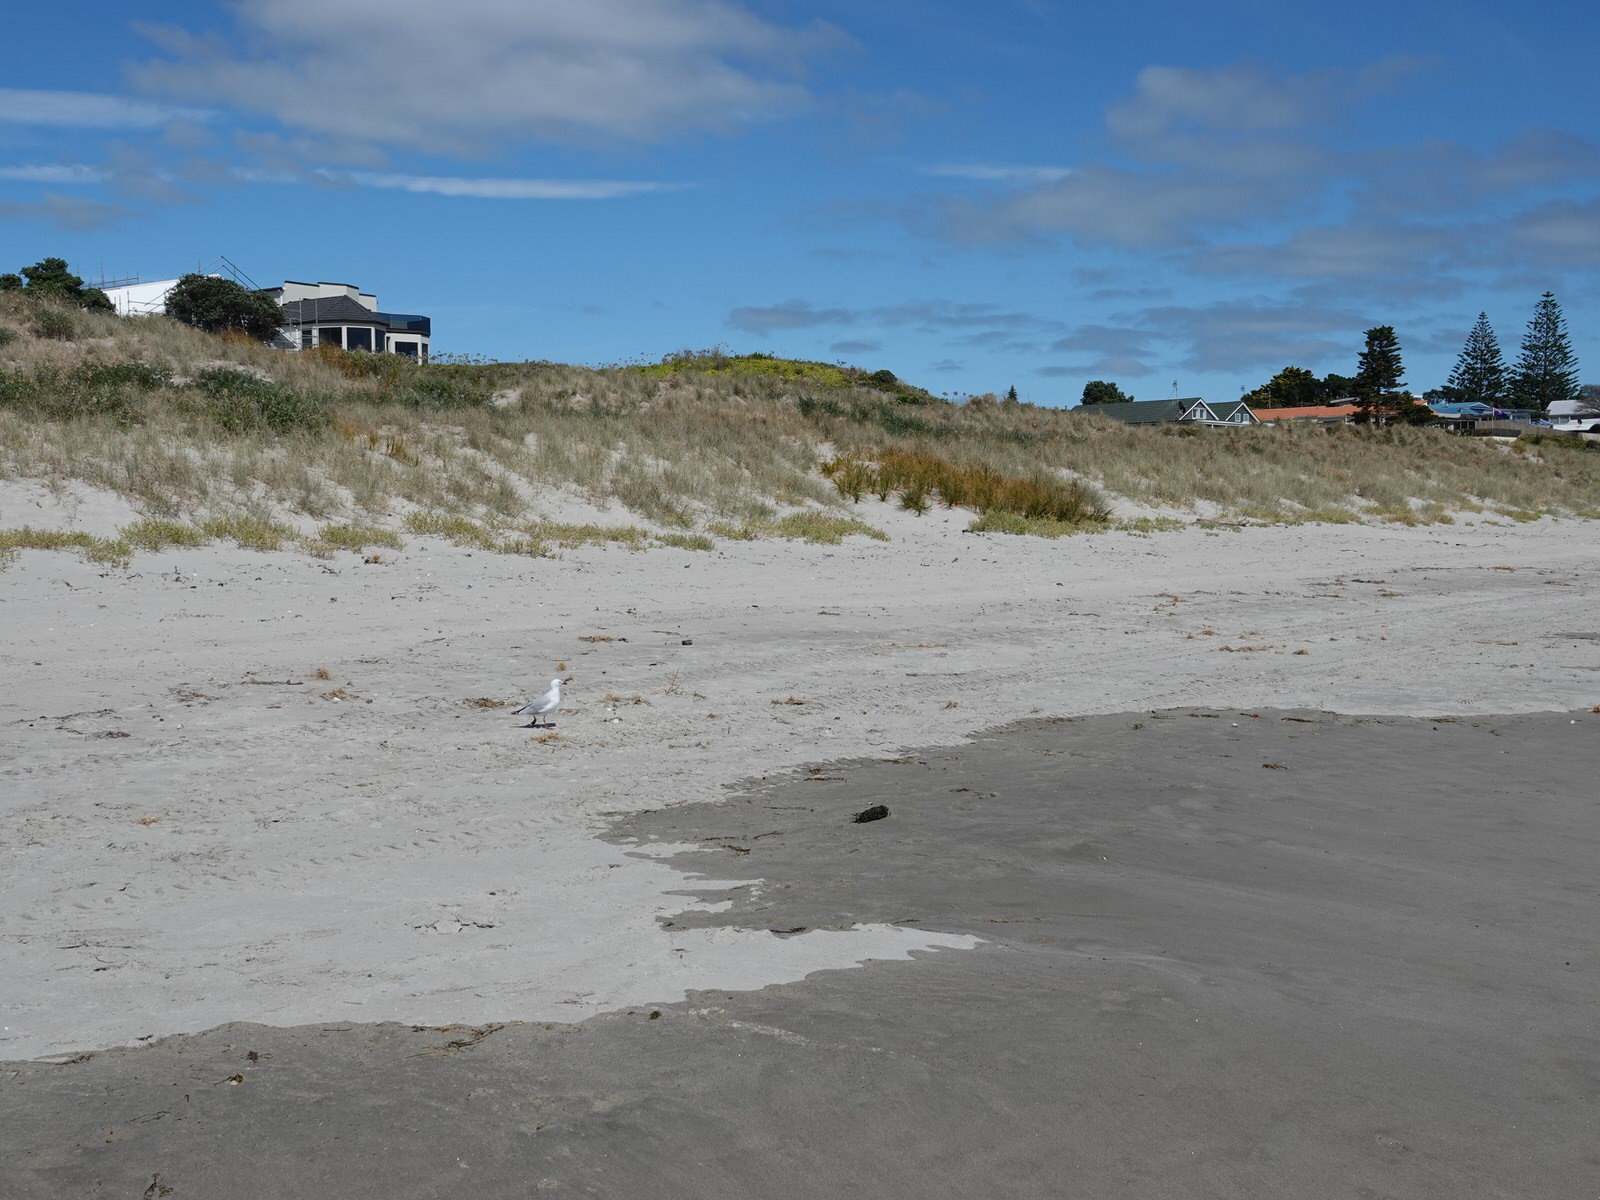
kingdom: Animalia
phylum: Chordata
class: Aves
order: Charadriiformes
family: Laridae
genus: Chroicocephalus
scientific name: Chroicocephalus novaehollandiae
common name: Silver gull
